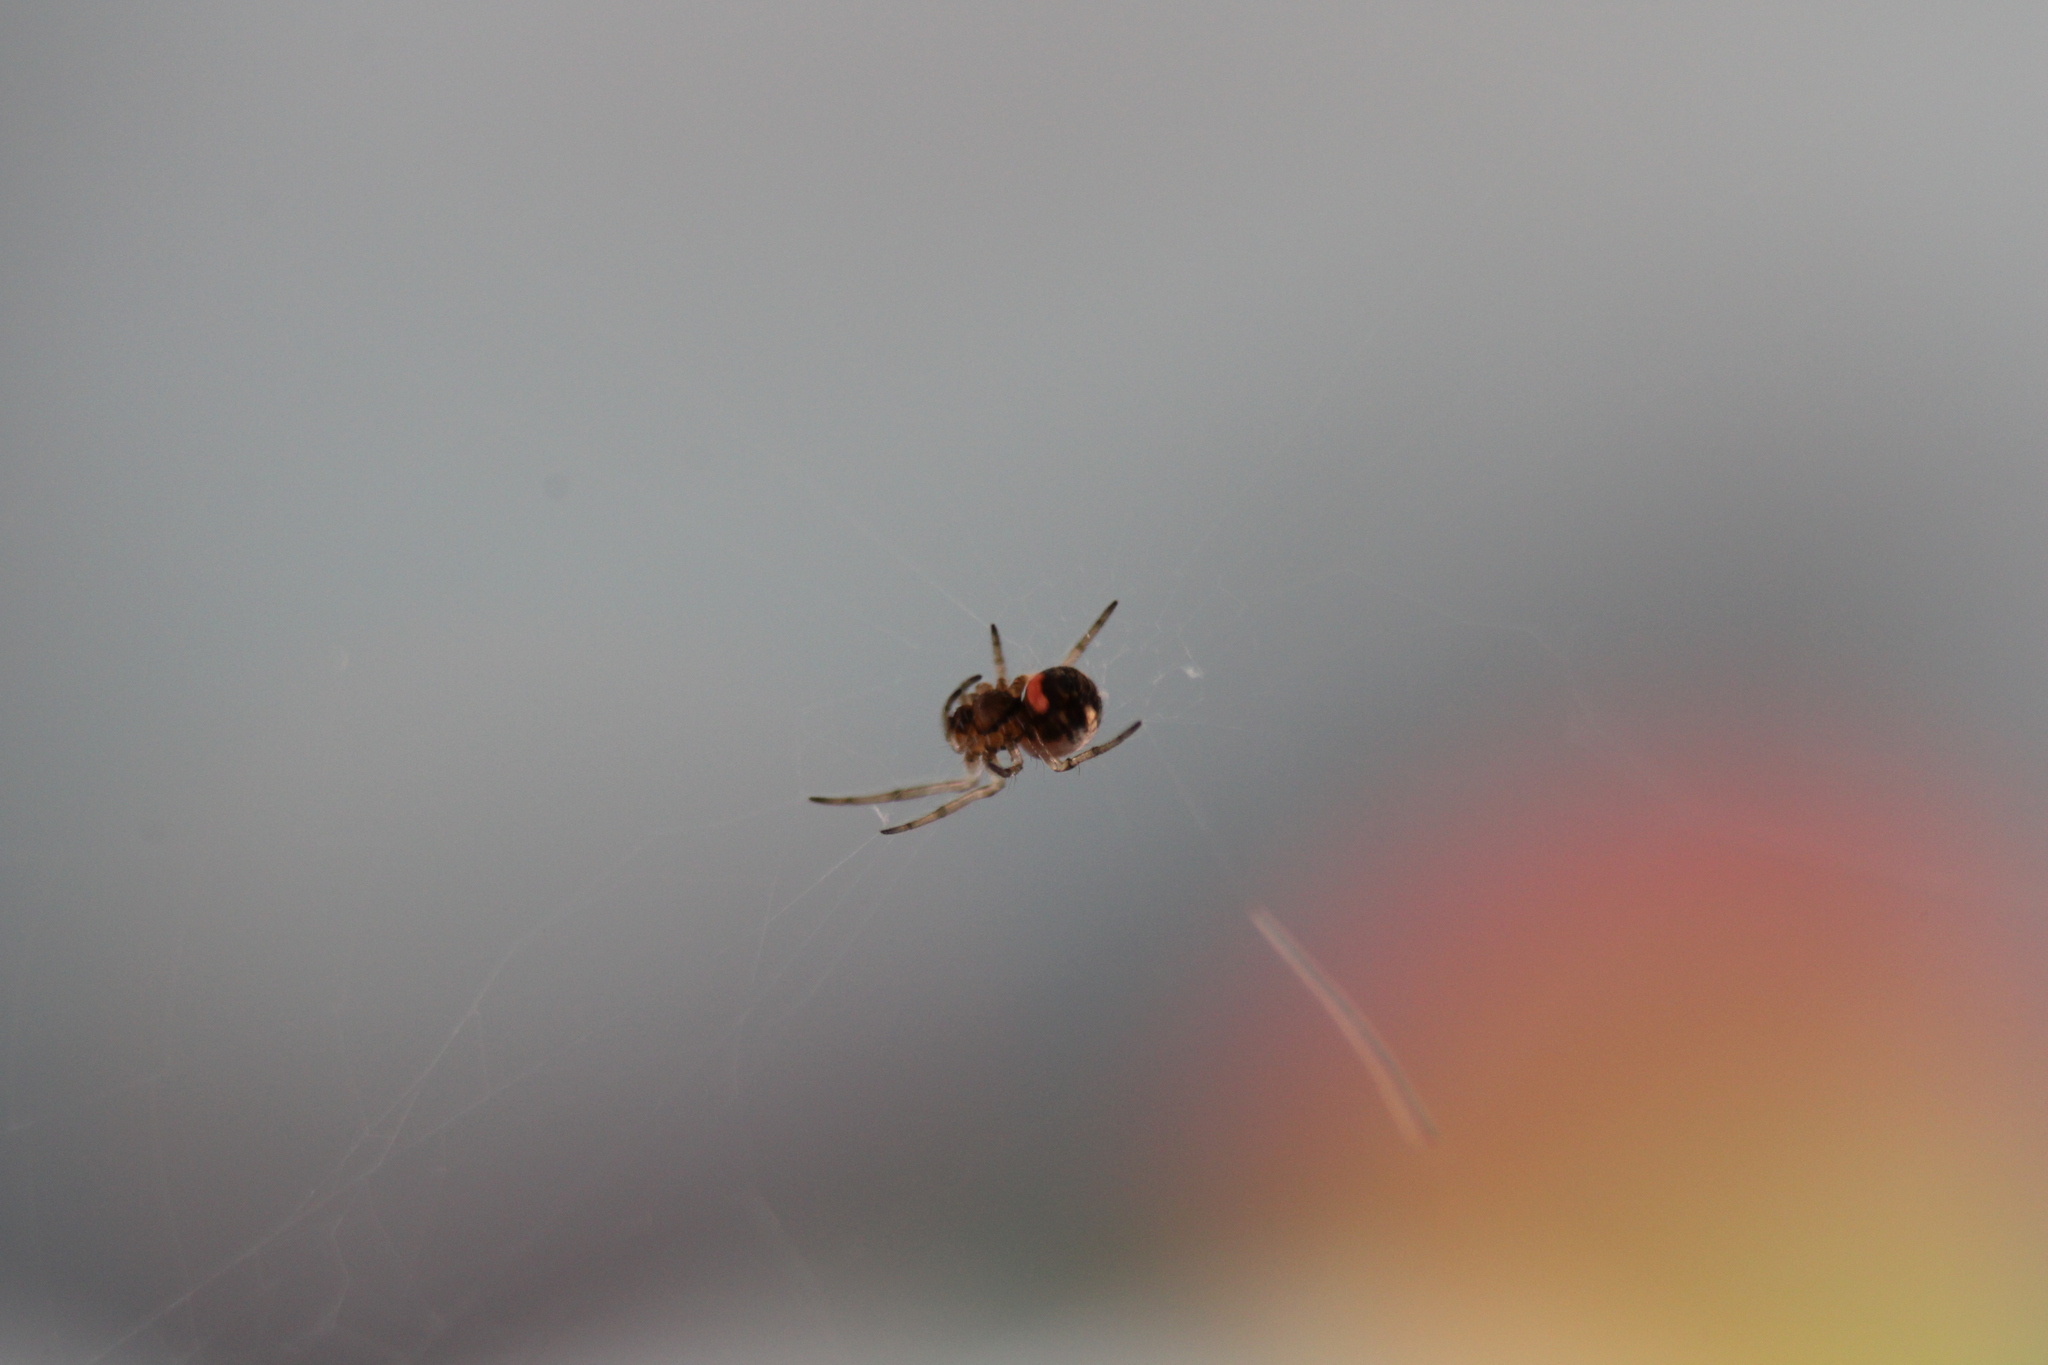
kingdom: Animalia
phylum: Arthropoda
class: Arachnida
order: Araneae
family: Tetragnathidae
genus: Leucauge
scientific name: Leucauge venusta
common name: Longjawed orb weavers
